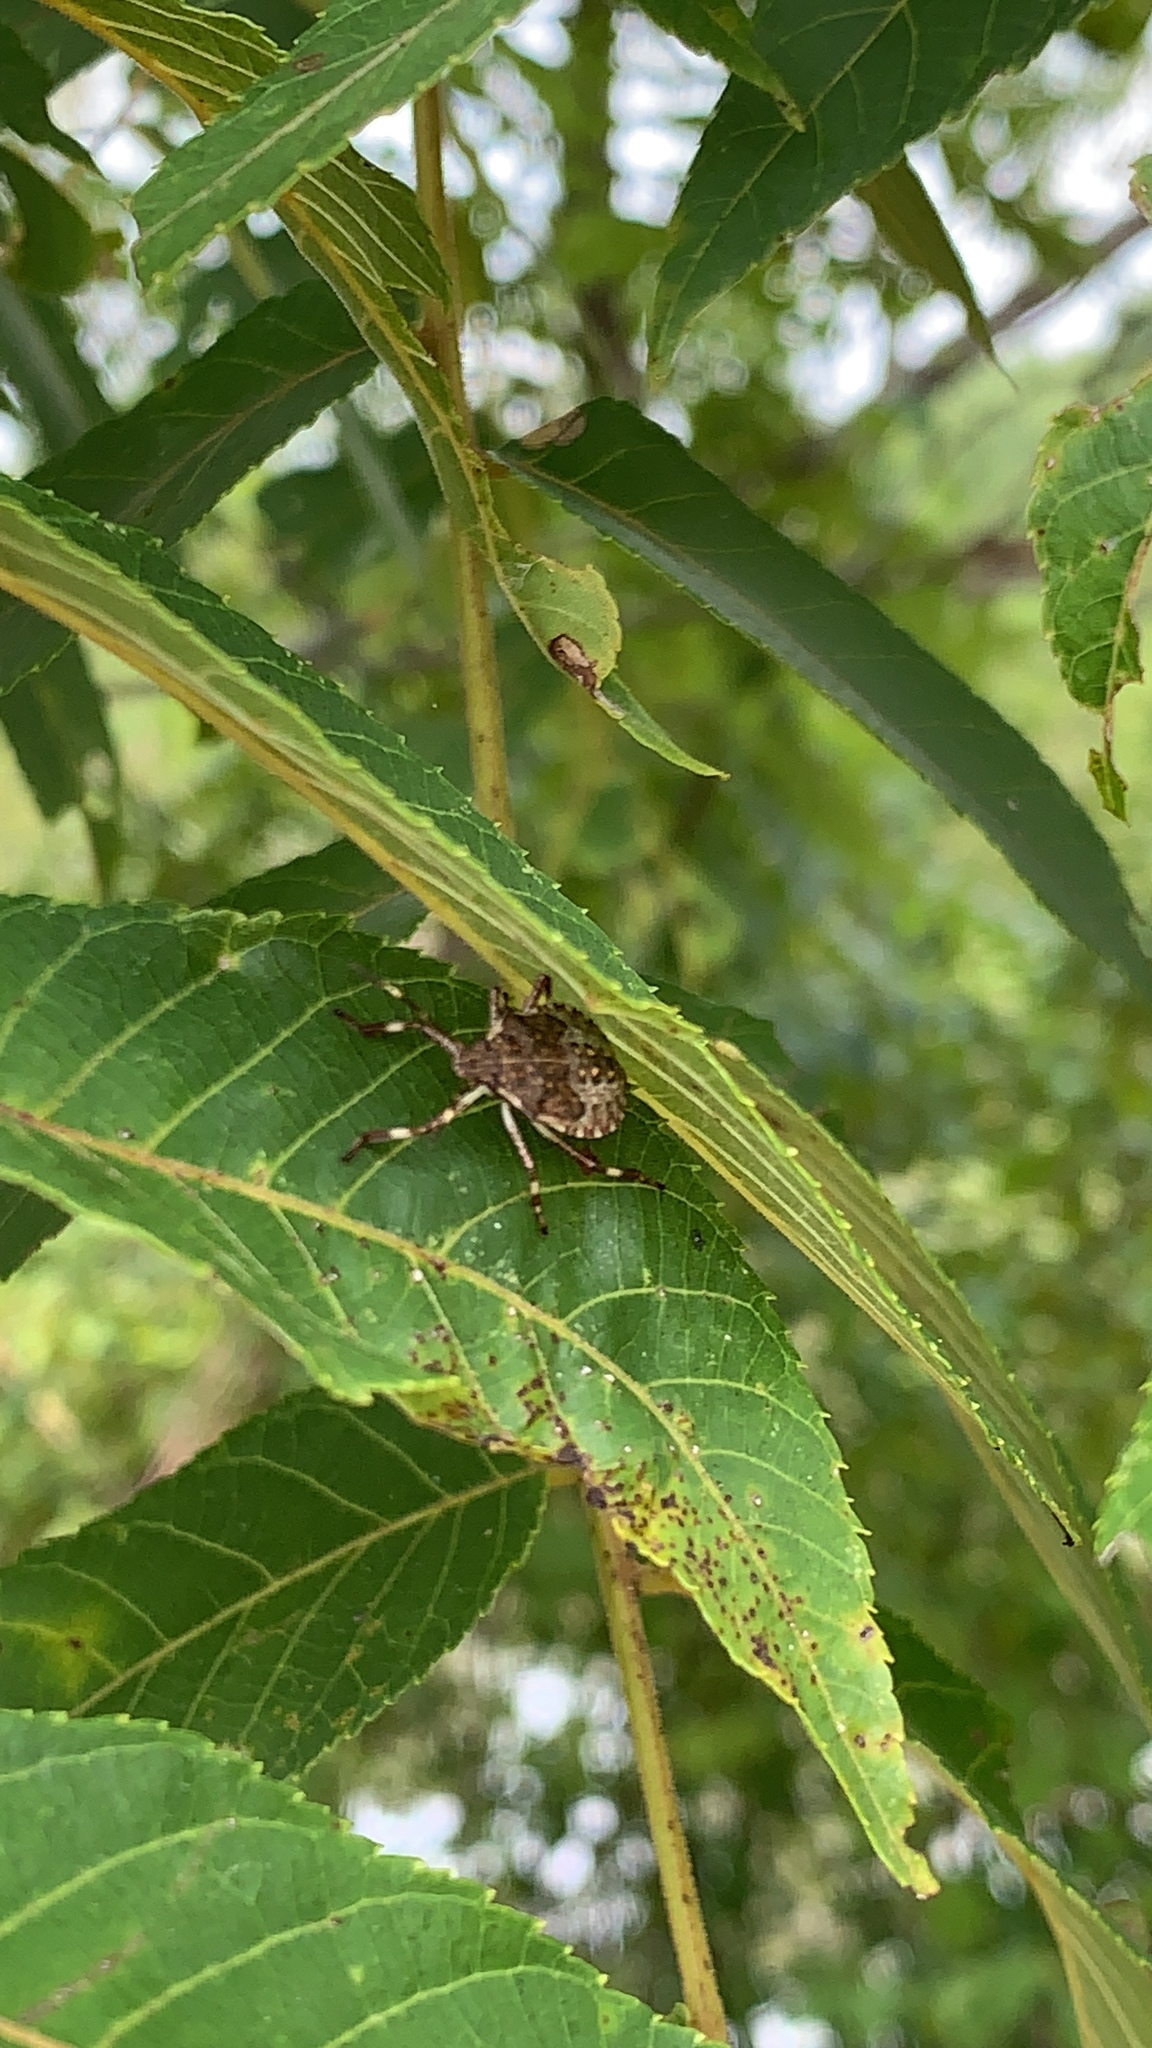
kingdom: Animalia
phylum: Arthropoda
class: Insecta
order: Hemiptera
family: Pentatomidae
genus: Halyomorpha
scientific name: Halyomorpha halys
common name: Brown marmorated stink bug
